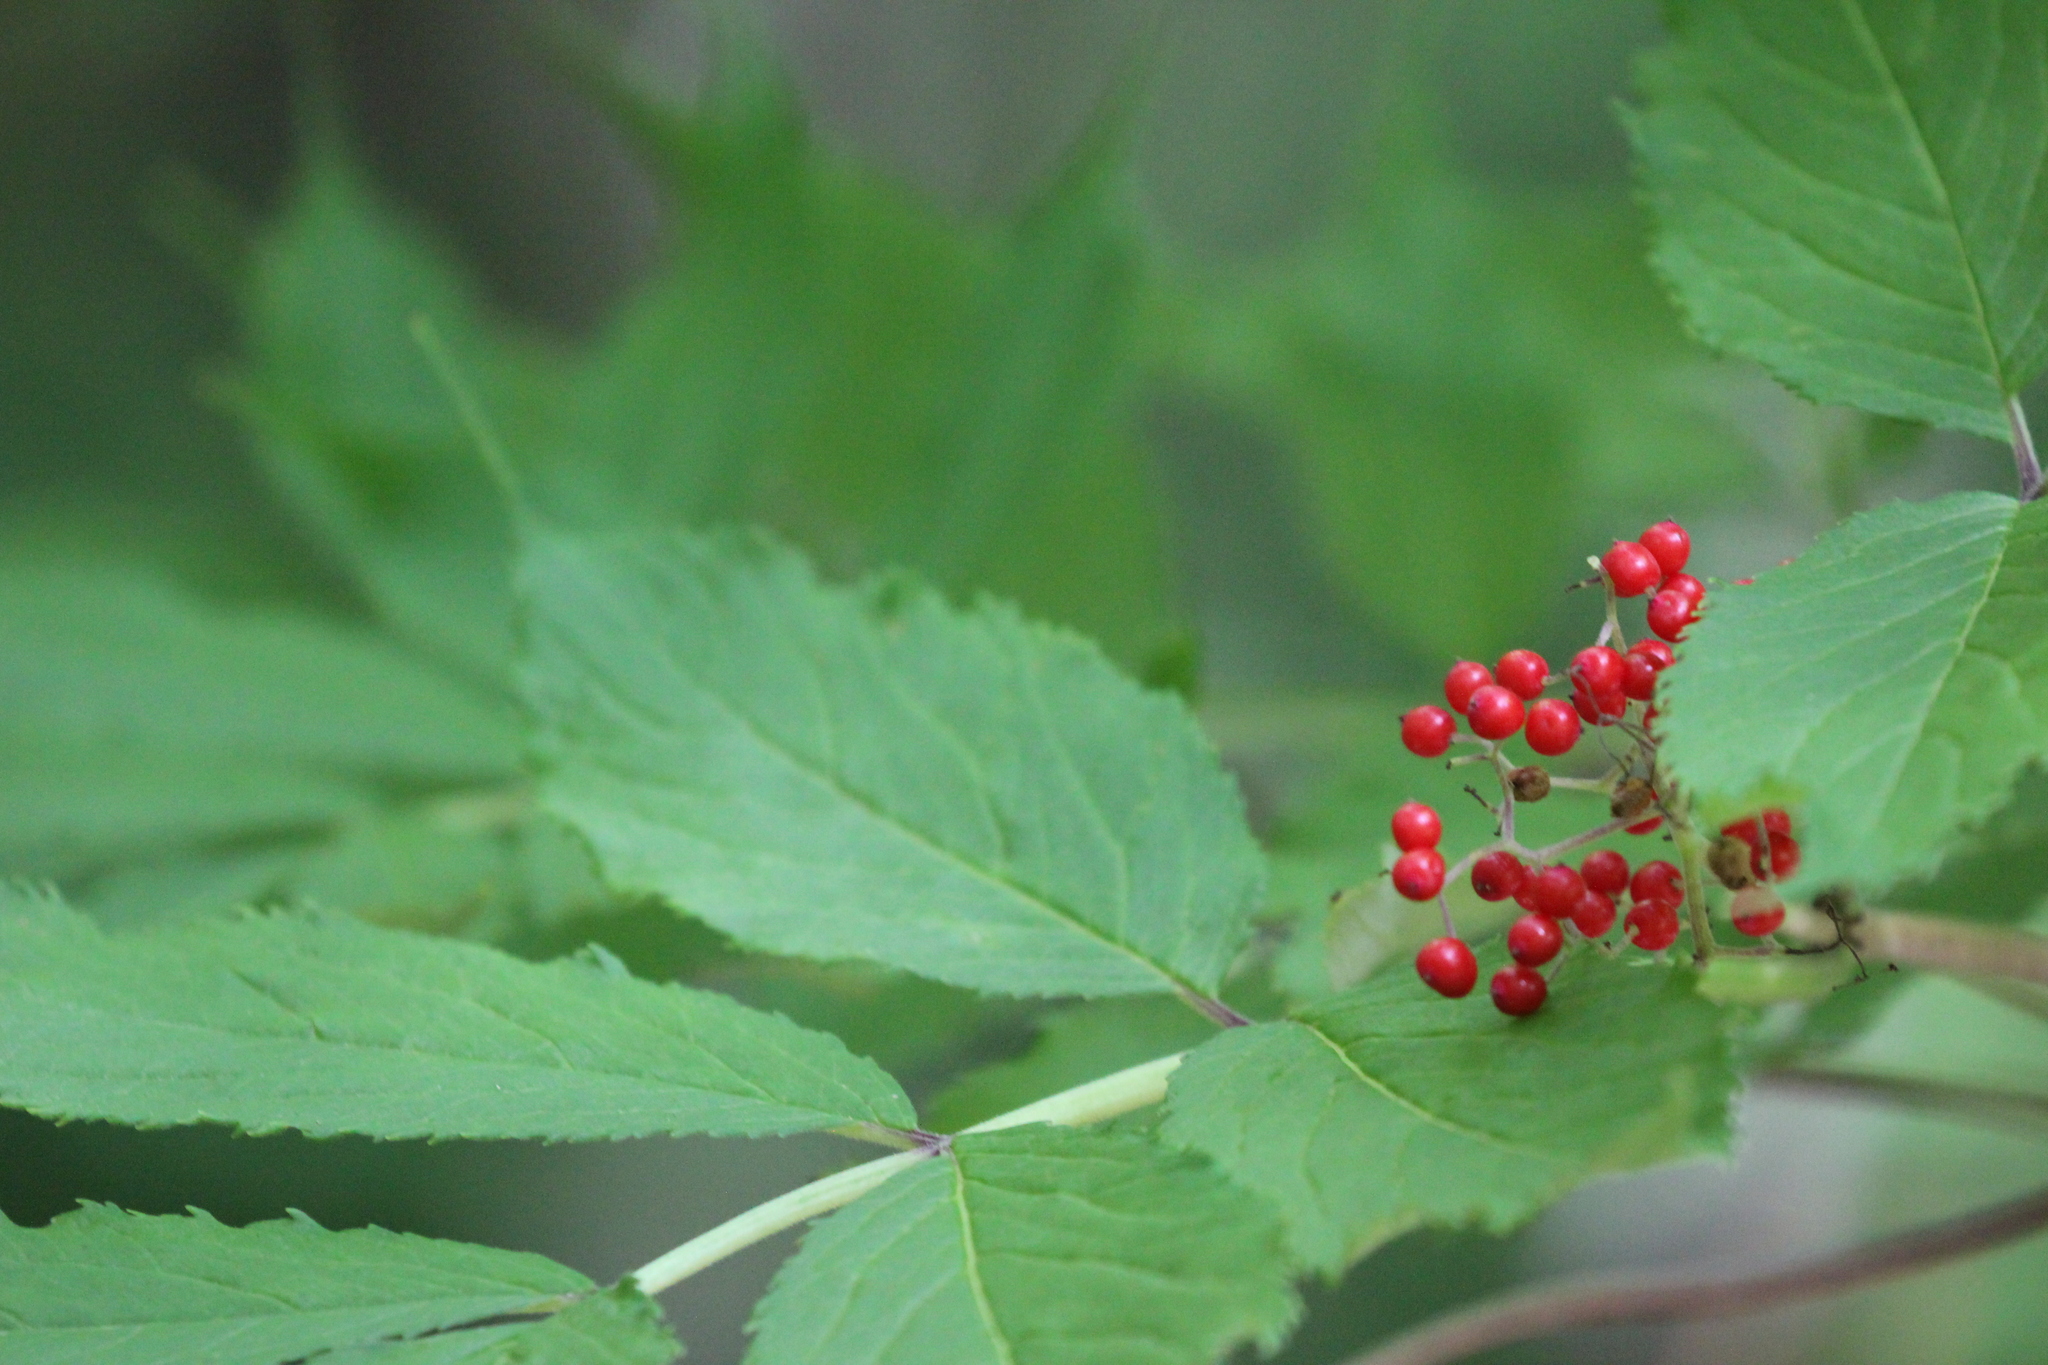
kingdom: Plantae
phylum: Tracheophyta
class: Magnoliopsida
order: Dipsacales
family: Viburnaceae
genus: Sambucus
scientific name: Sambucus racemosa
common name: Red-berried elder
